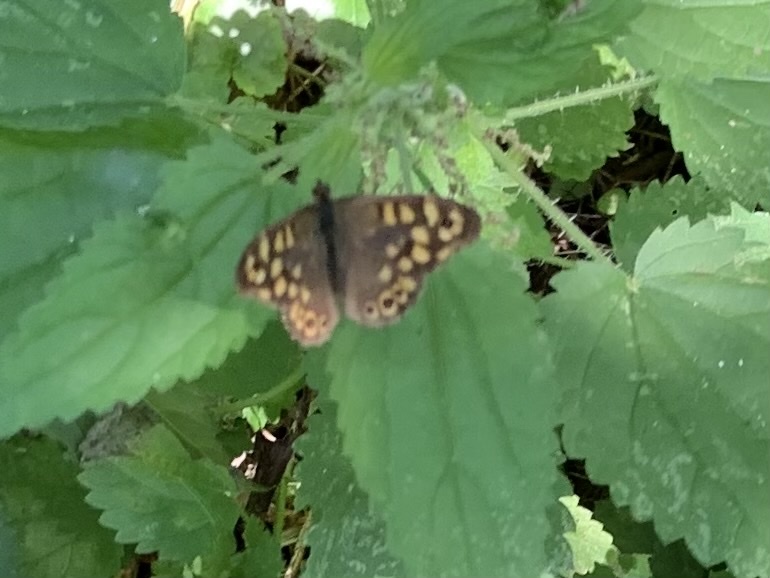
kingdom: Animalia
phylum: Arthropoda
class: Insecta
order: Lepidoptera
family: Nymphalidae
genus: Pararge
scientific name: Pararge aegeria
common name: Speckled wood
